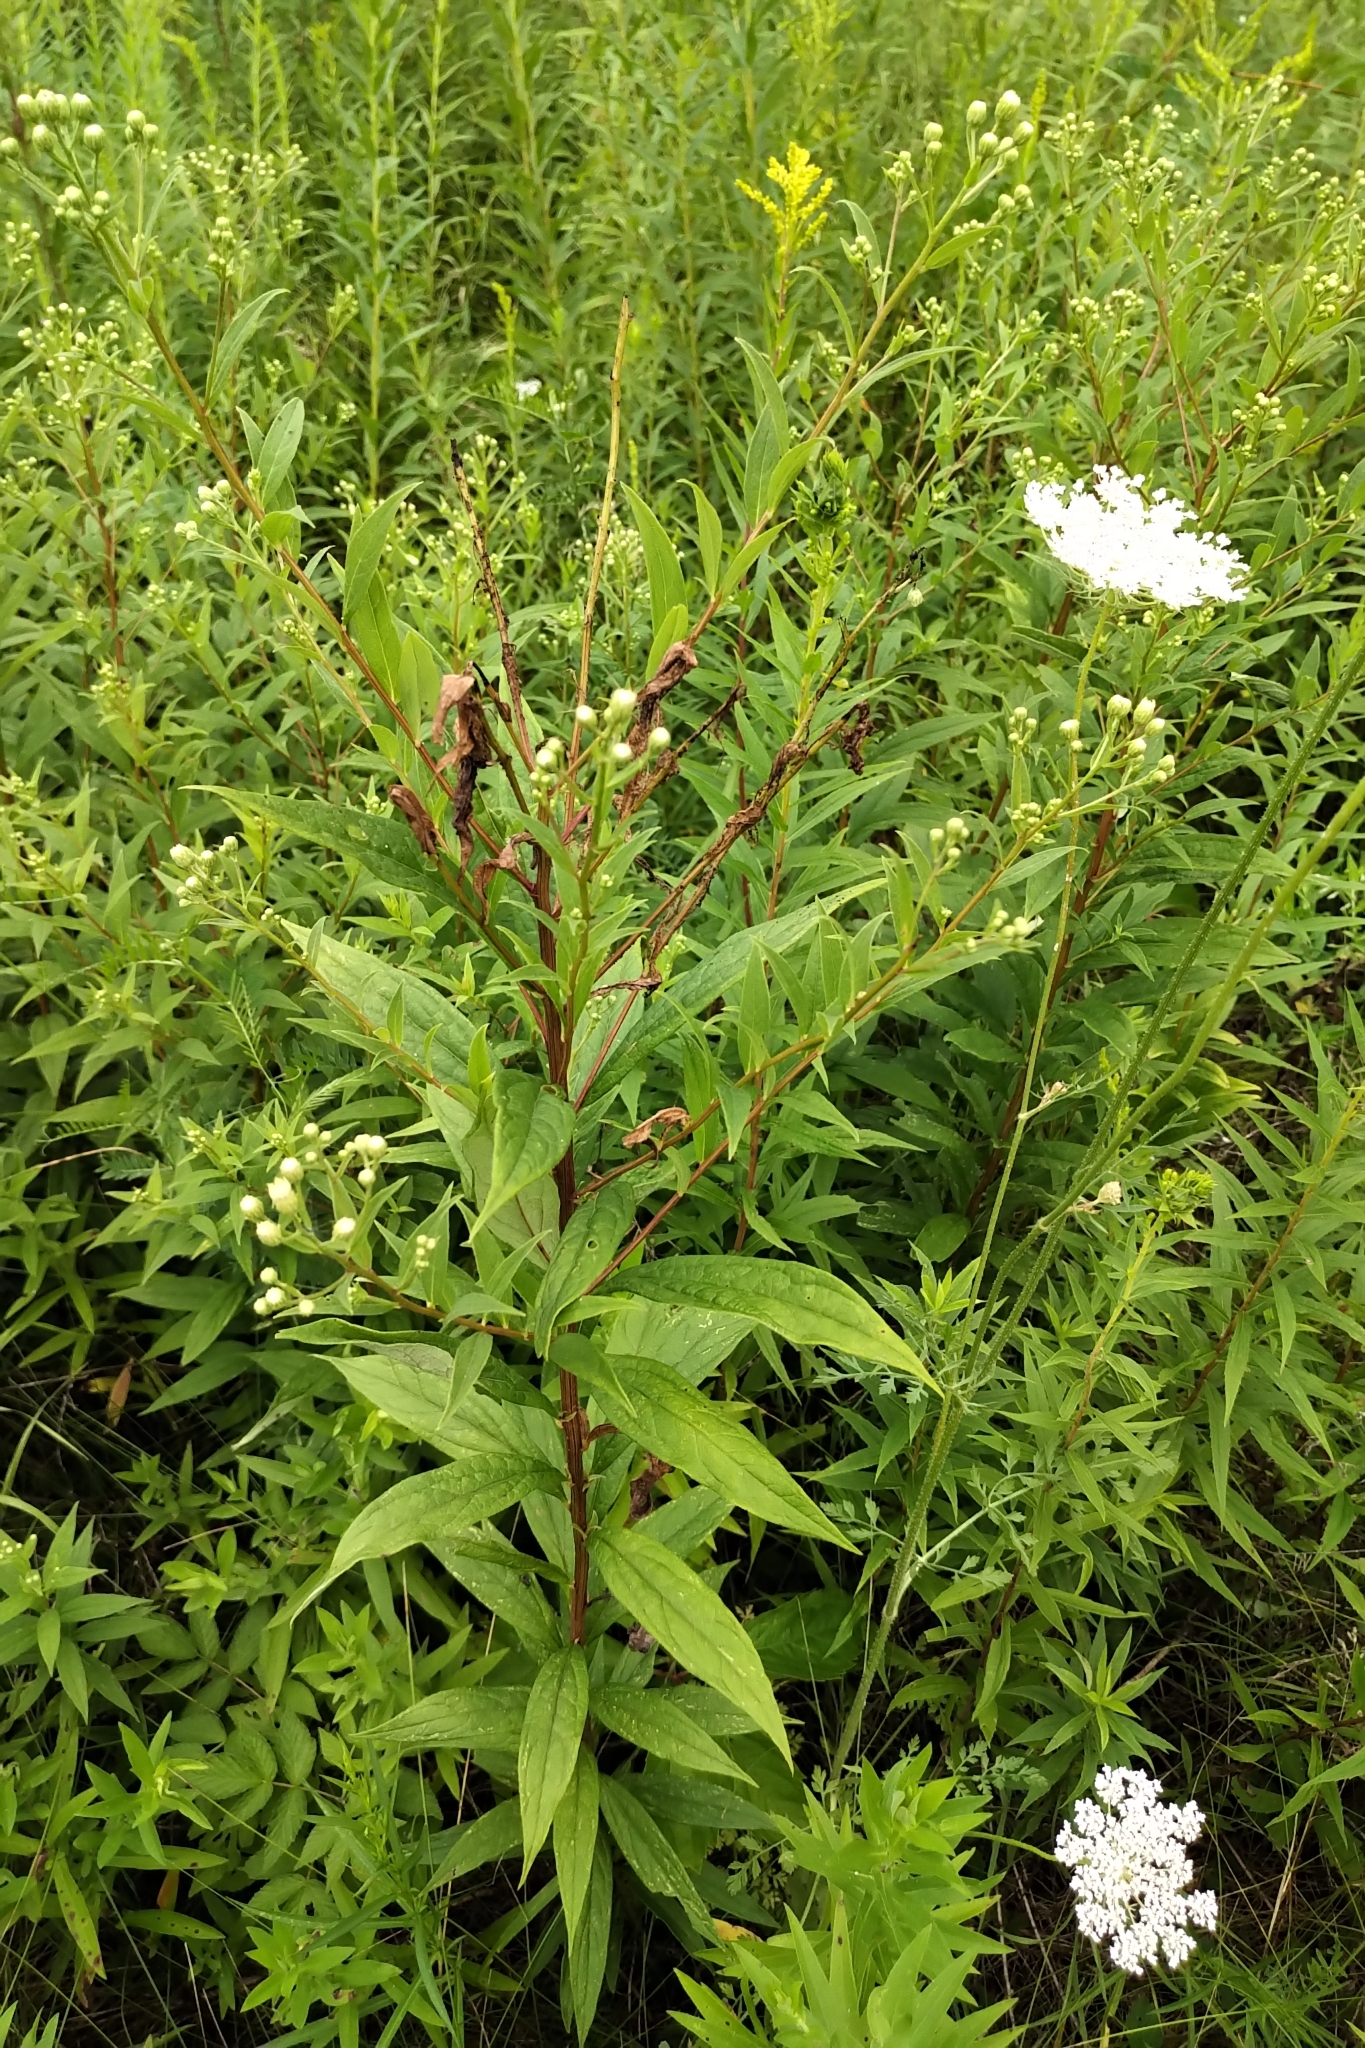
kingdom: Plantae
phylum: Tracheophyta
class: Magnoliopsida
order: Asterales
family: Asteraceae
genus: Doellingeria
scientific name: Doellingeria umbellata
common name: Flat-top white aster
